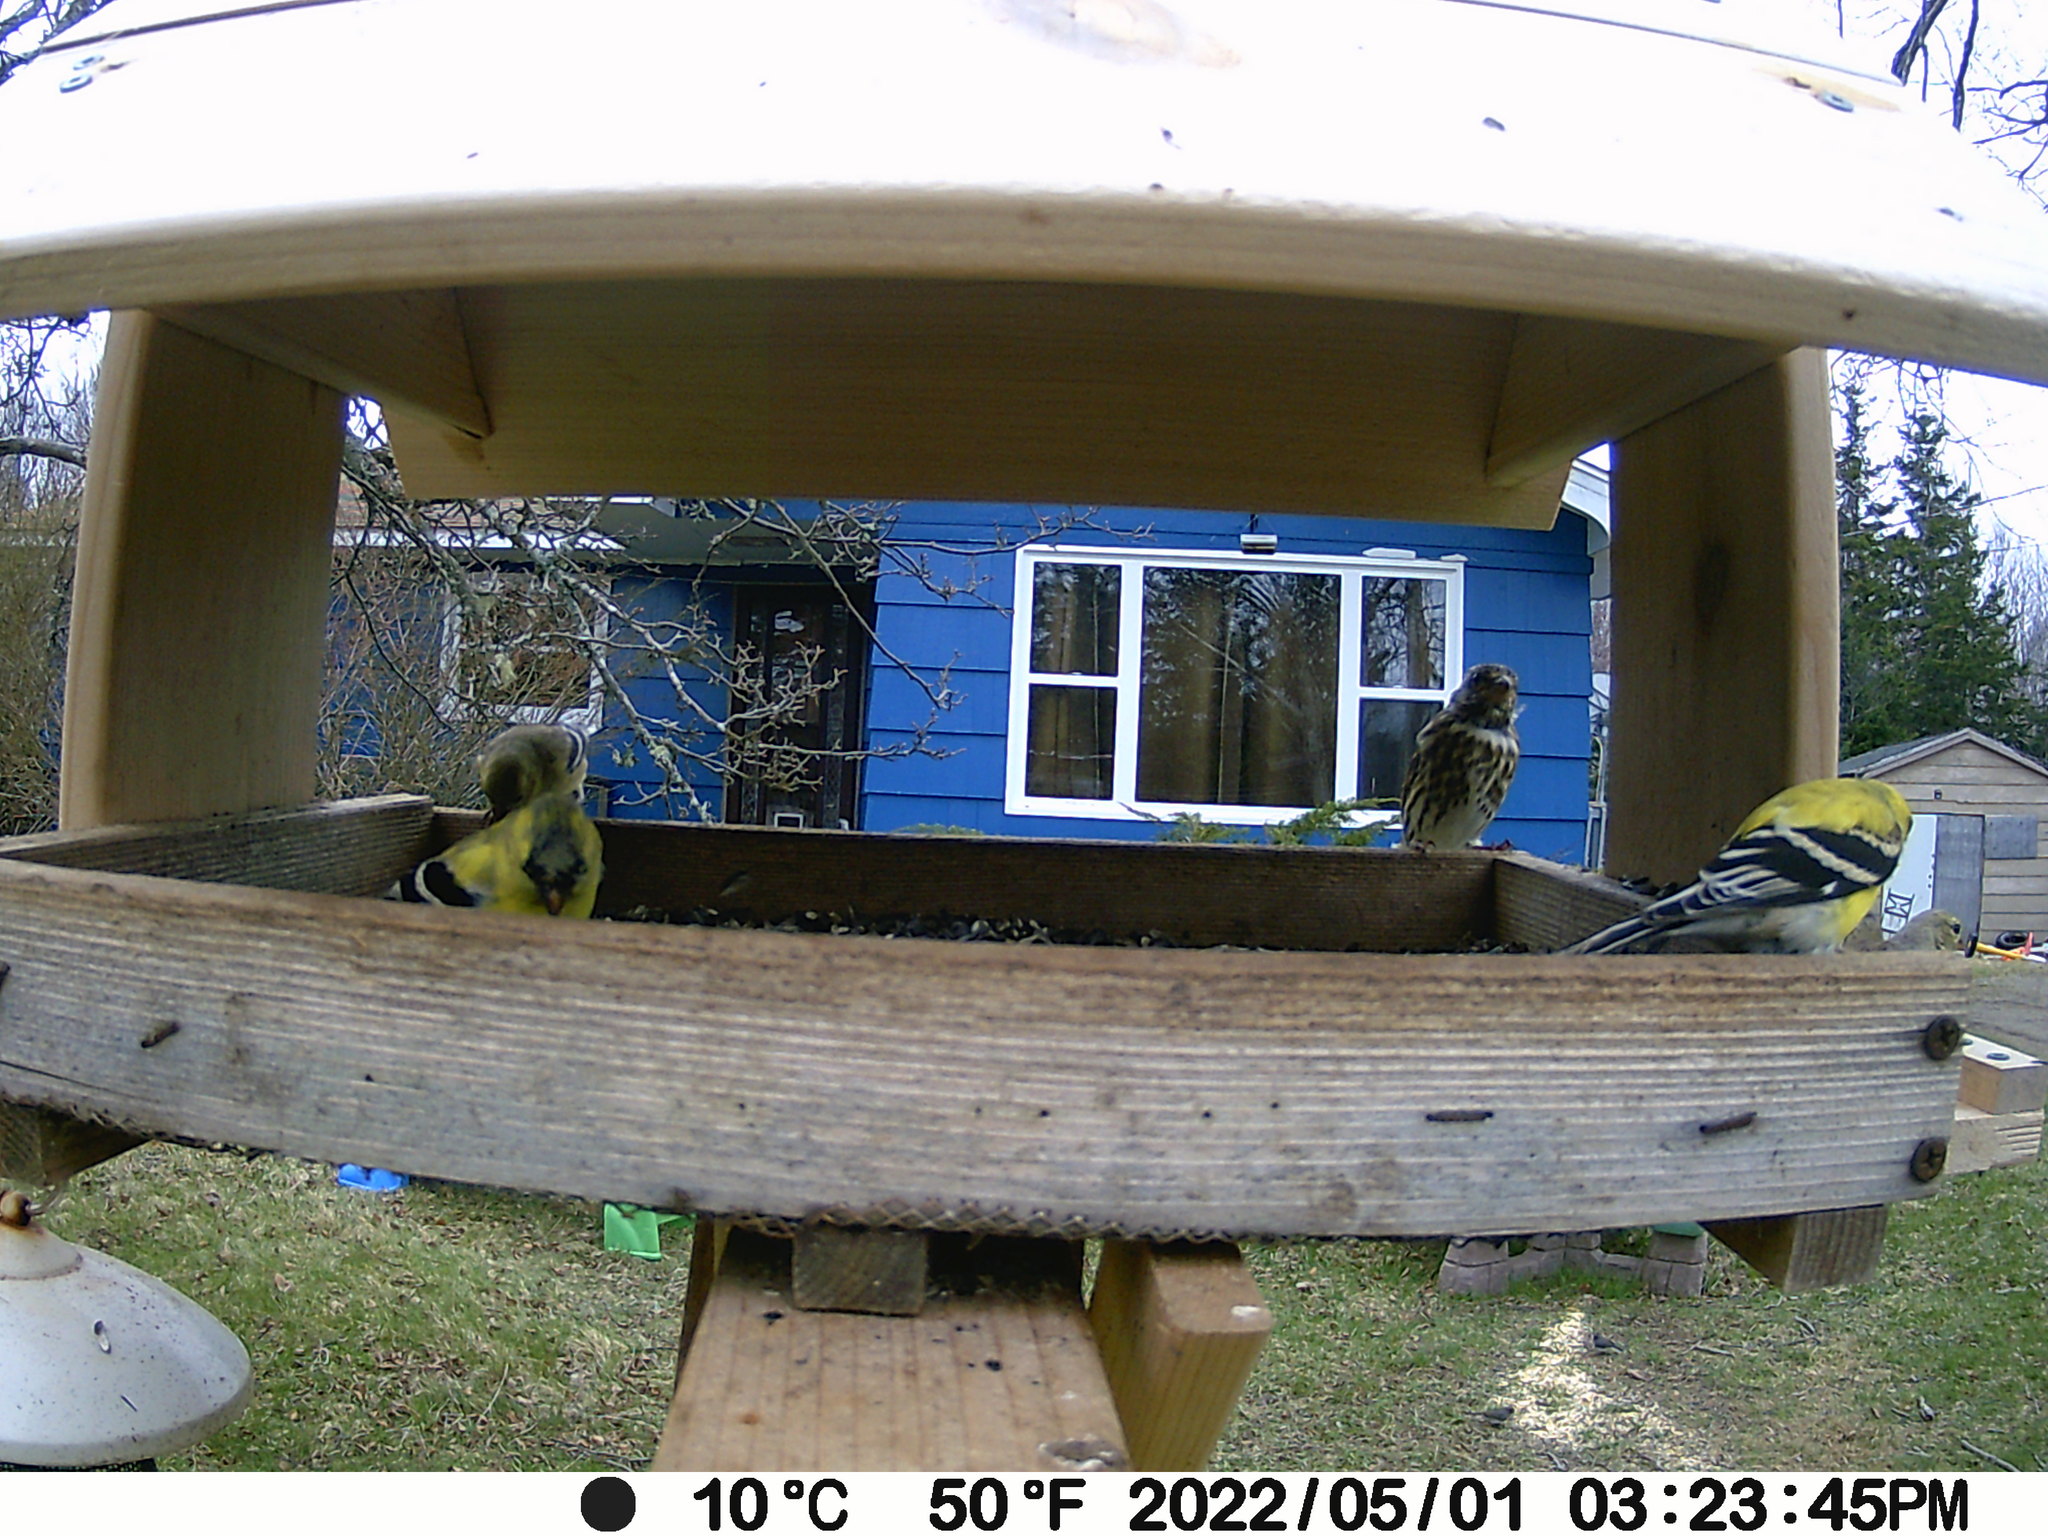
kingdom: Animalia
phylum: Chordata
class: Aves
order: Passeriformes
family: Fringillidae
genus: Haemorhous
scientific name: Haemorhous purpureus
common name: Purple finch
